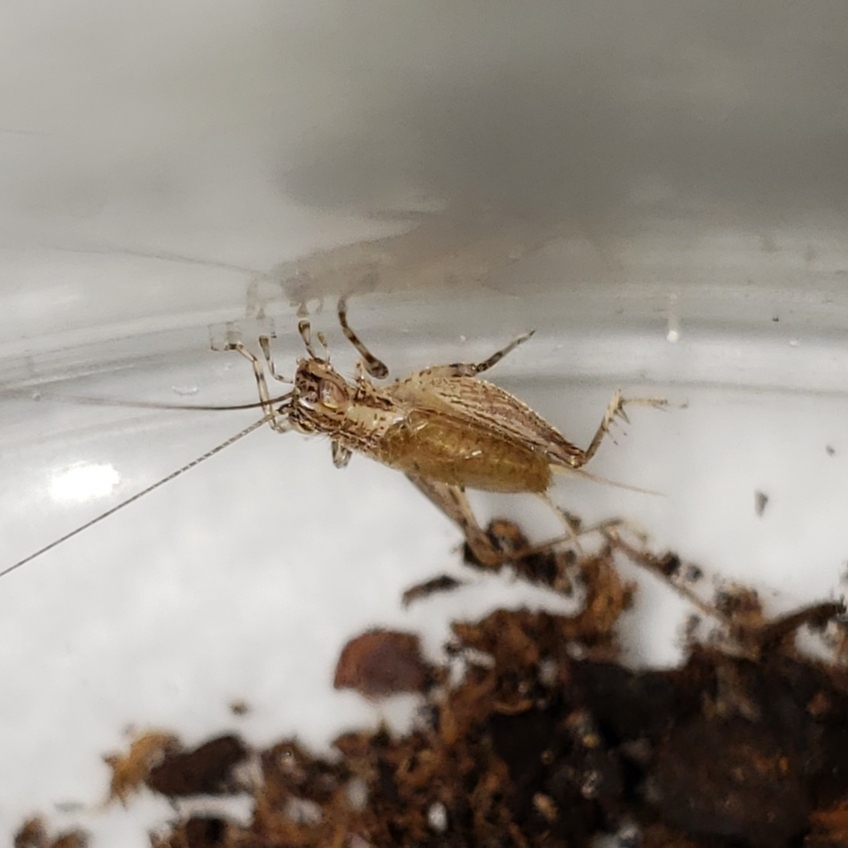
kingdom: Animalia
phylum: Arthropoda
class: Insecta
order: Orthoptera
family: Trigonidiidae
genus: Anaxipha
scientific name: Anaxipha fultoni
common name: Fulton's trig
